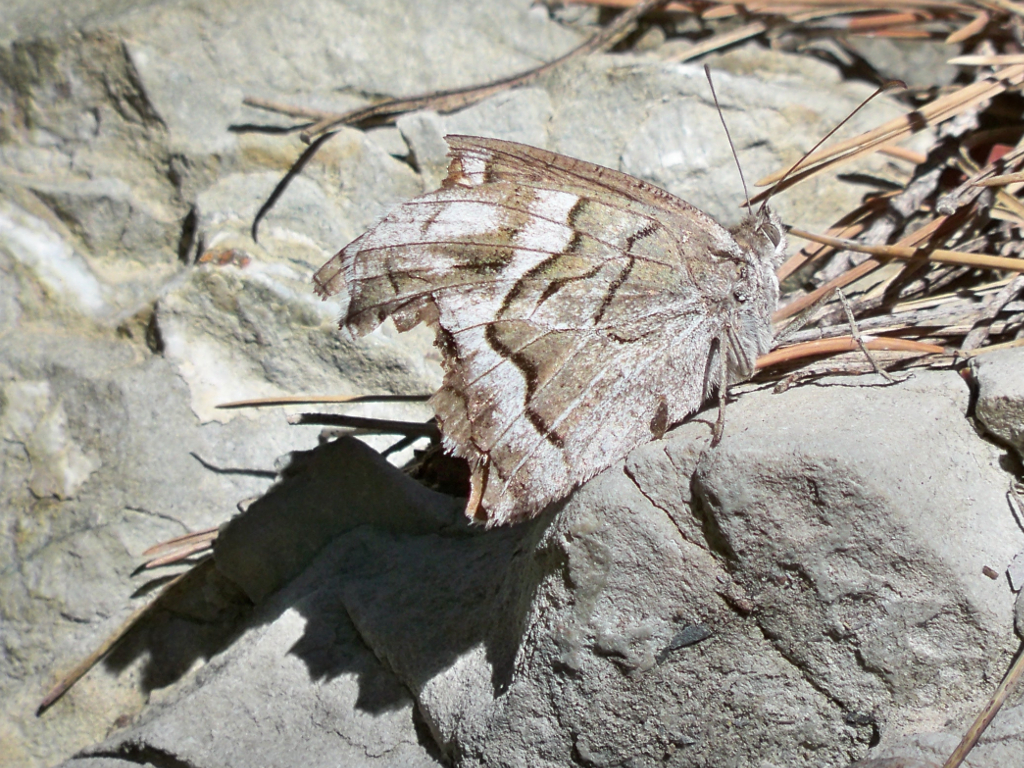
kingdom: Animalia
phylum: Arthropoda
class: Insecta
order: Lepidoptera
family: Nymphalidae
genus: Hipparchia
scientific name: Hipparchia fidia
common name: Striped grayling
